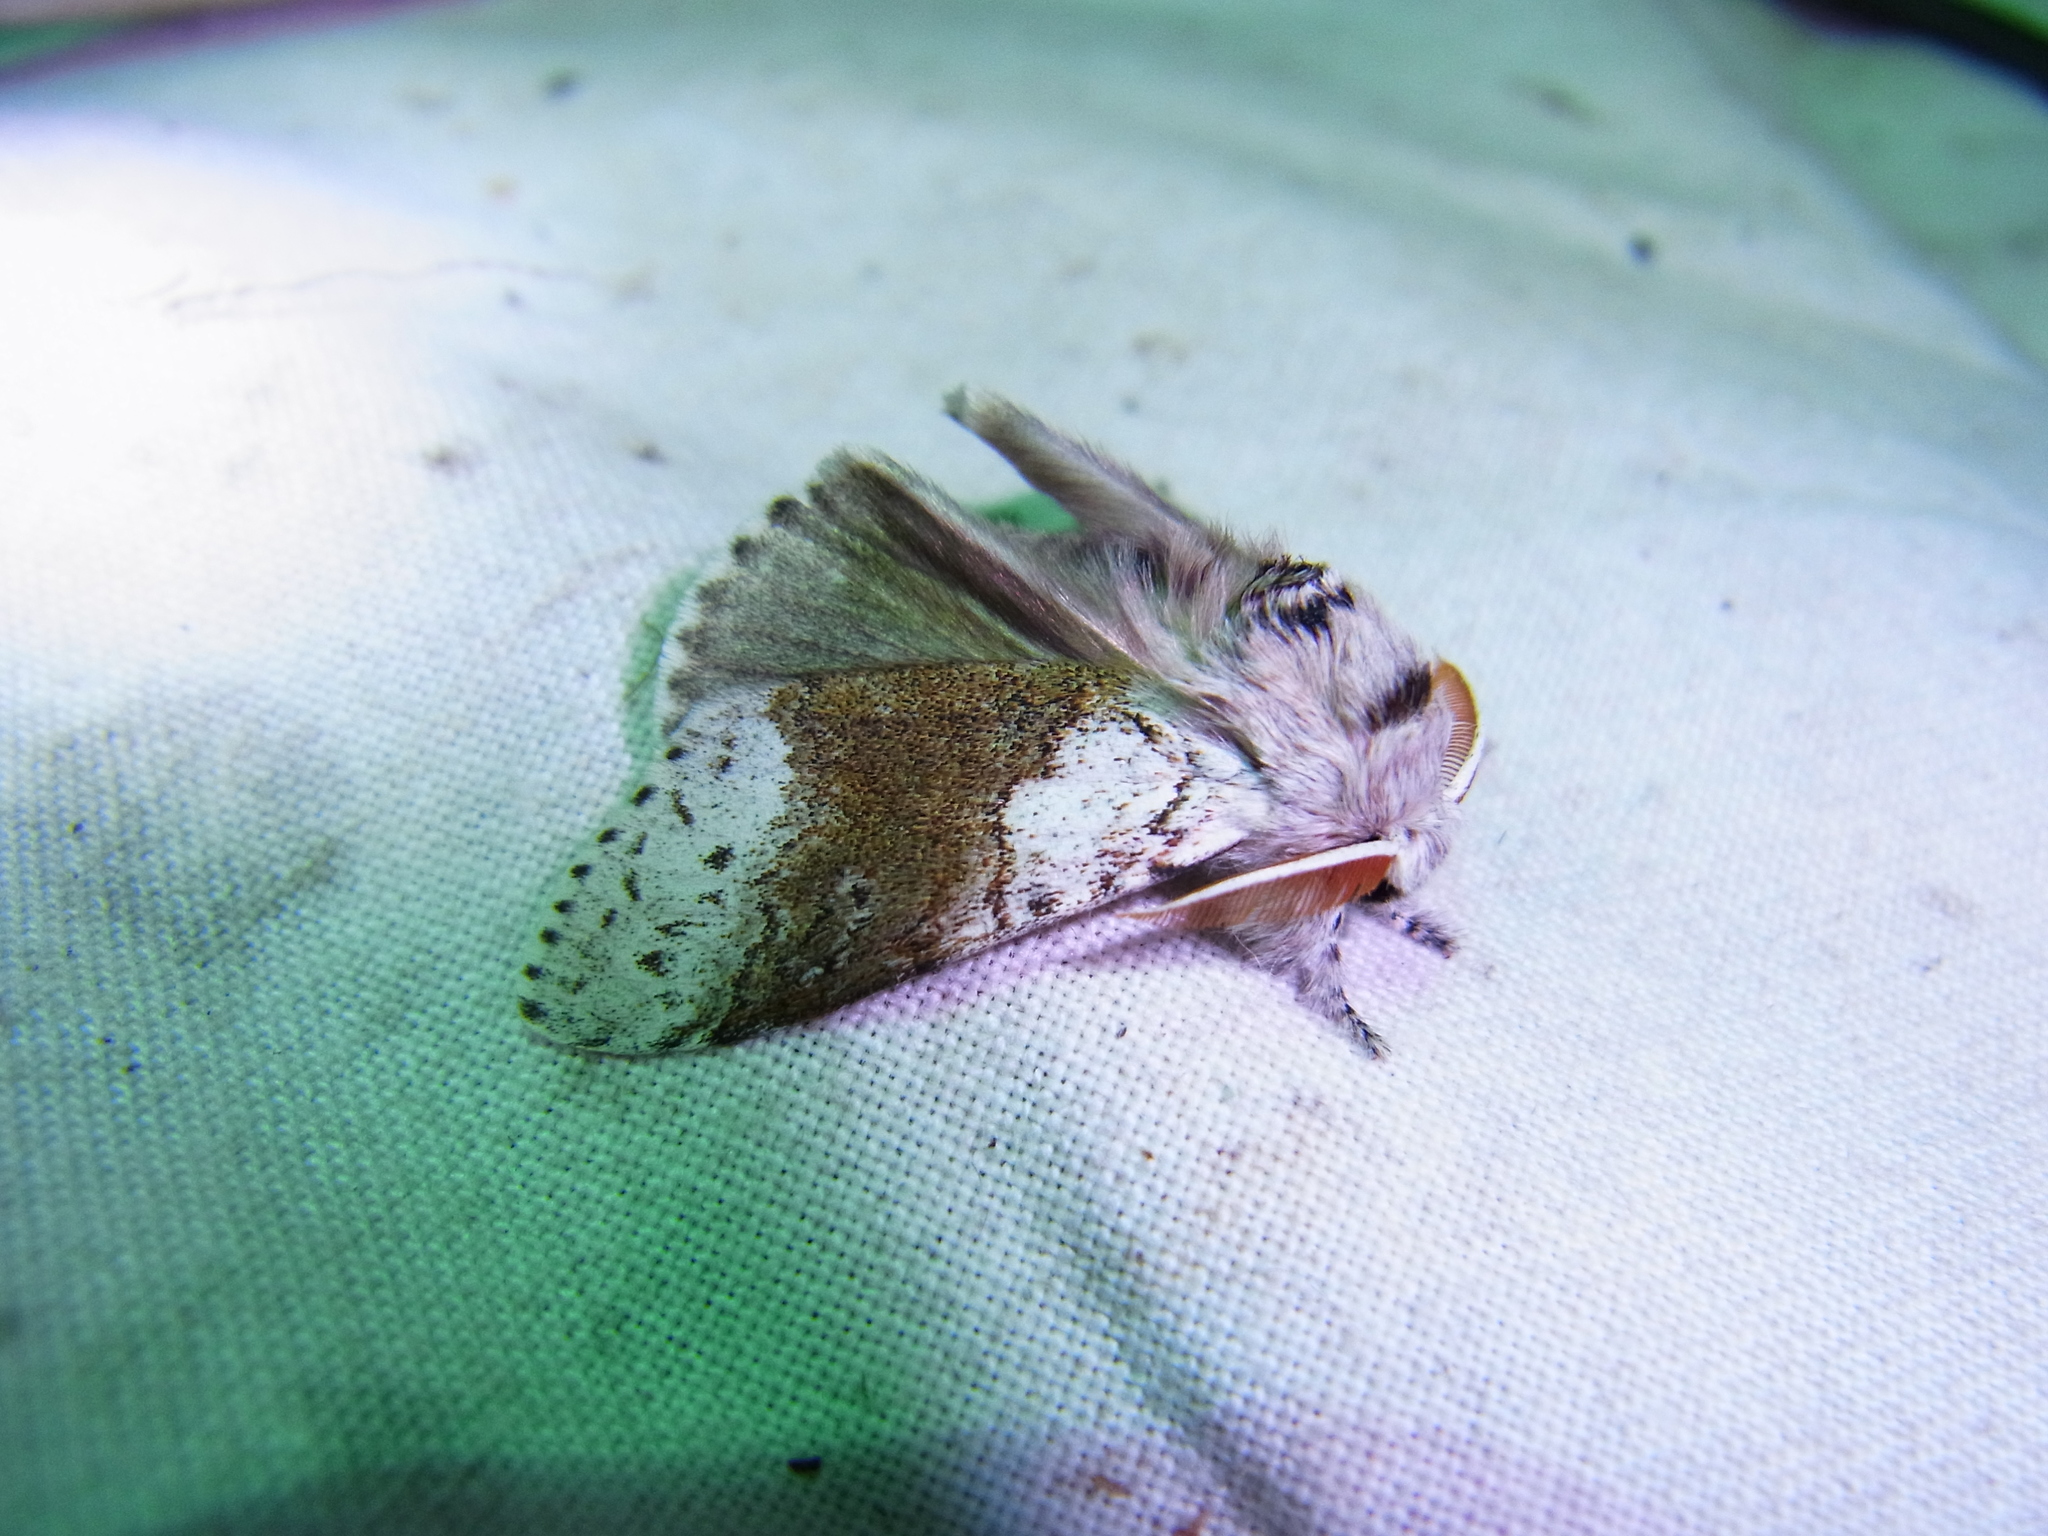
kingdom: Animalia
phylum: Arthropoda
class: Insecta
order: Lepidoptera
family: Erebidae
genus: Calliteara
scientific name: Calliteara
